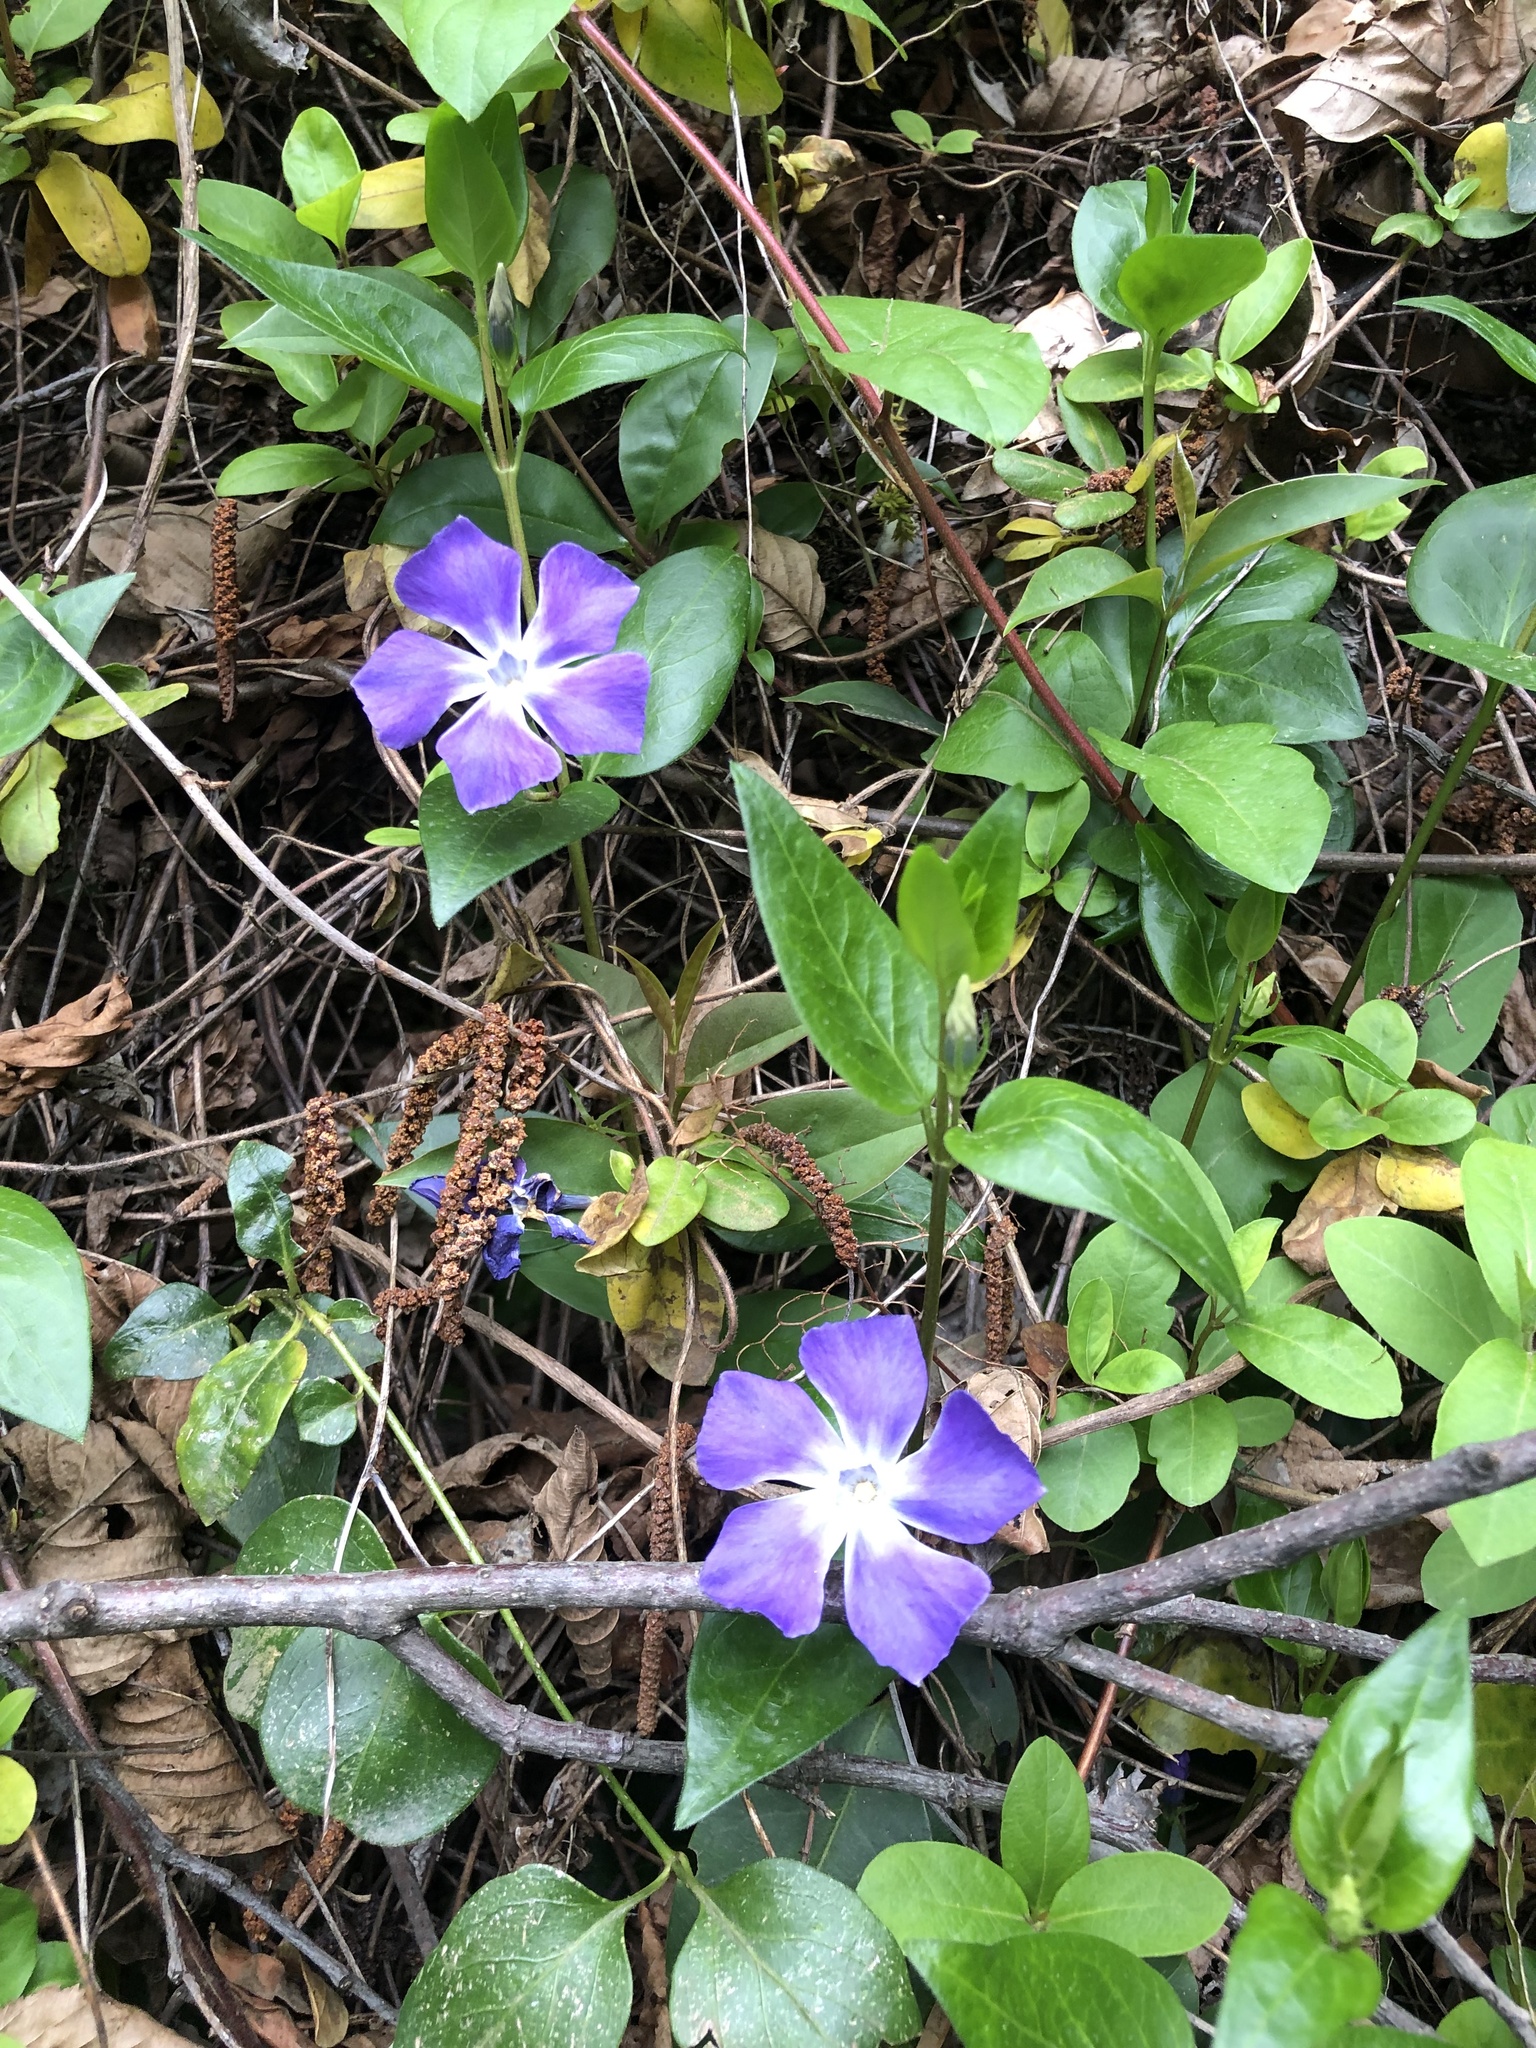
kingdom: Plantae
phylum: Tracheophyta
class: Magnoliopsida
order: Gentianales
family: Apocynaceae
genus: Vinca
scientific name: Vinca major
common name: Greater periwinkle
